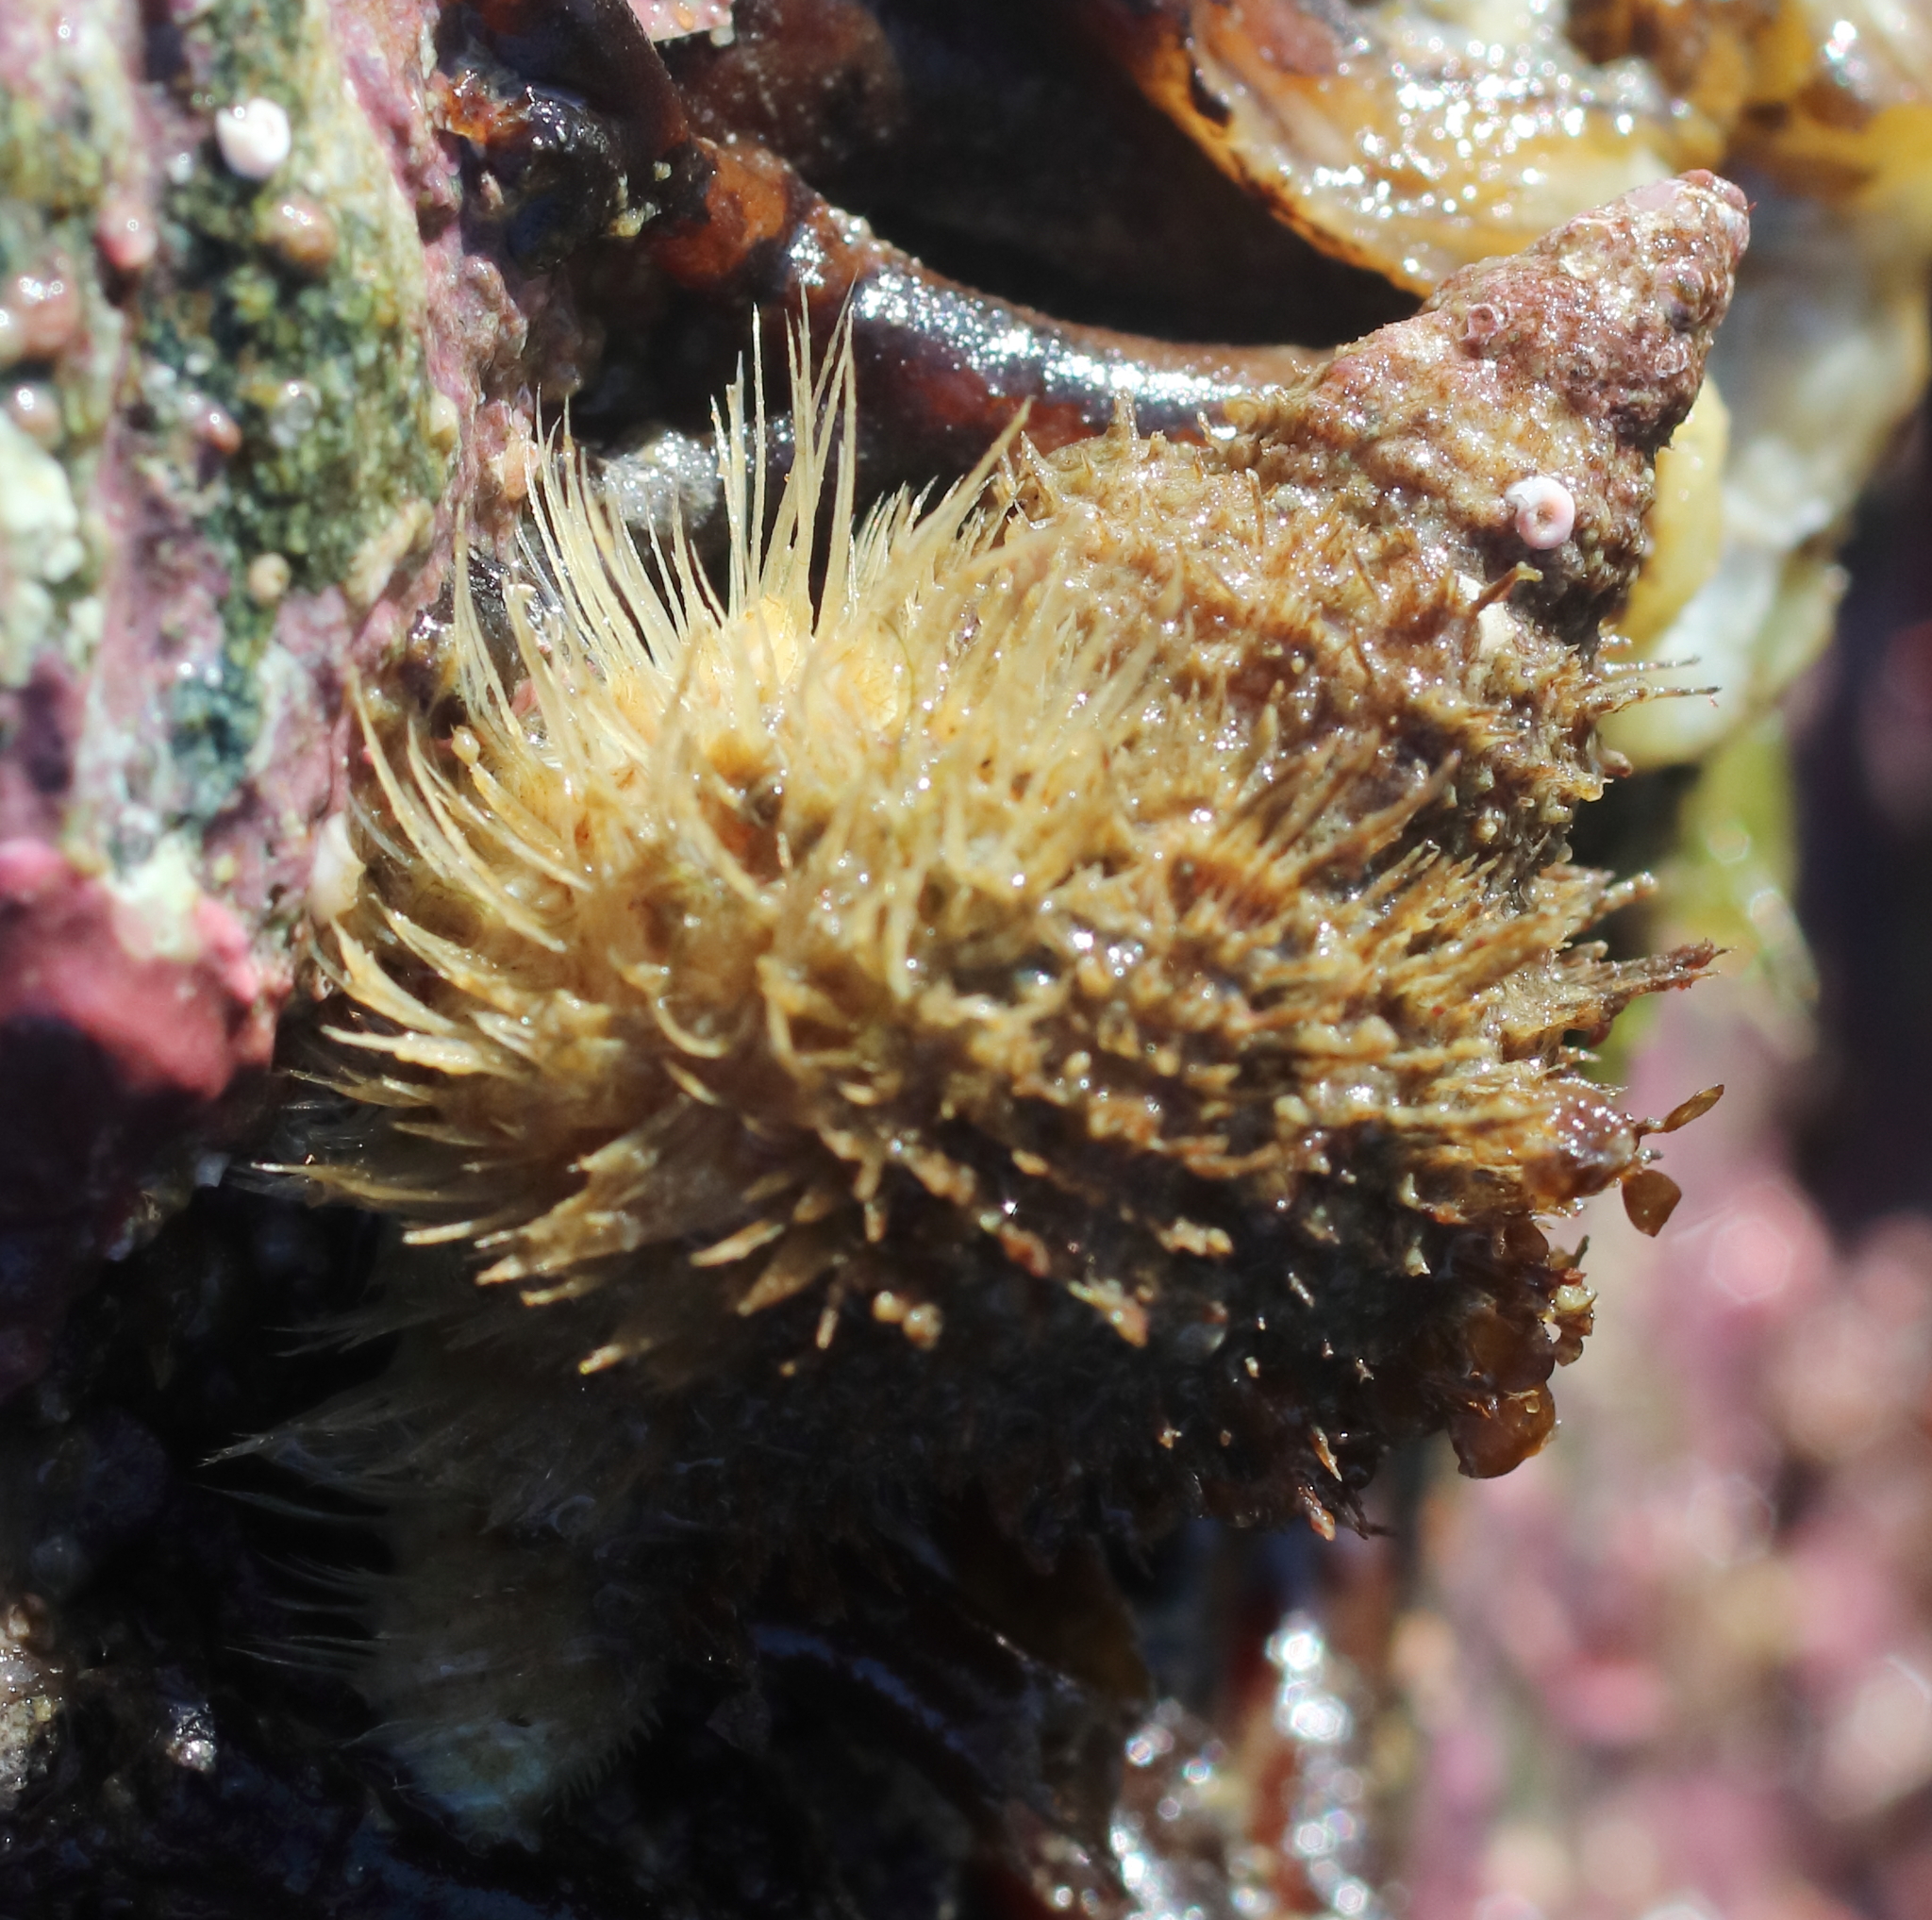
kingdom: Animalia
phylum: Mollusca
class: Gastropoda
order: Littorinimorpha
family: Cymatiidae
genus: Fusitriton
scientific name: Fusitriton oregonensis
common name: Oregon hairy triton
